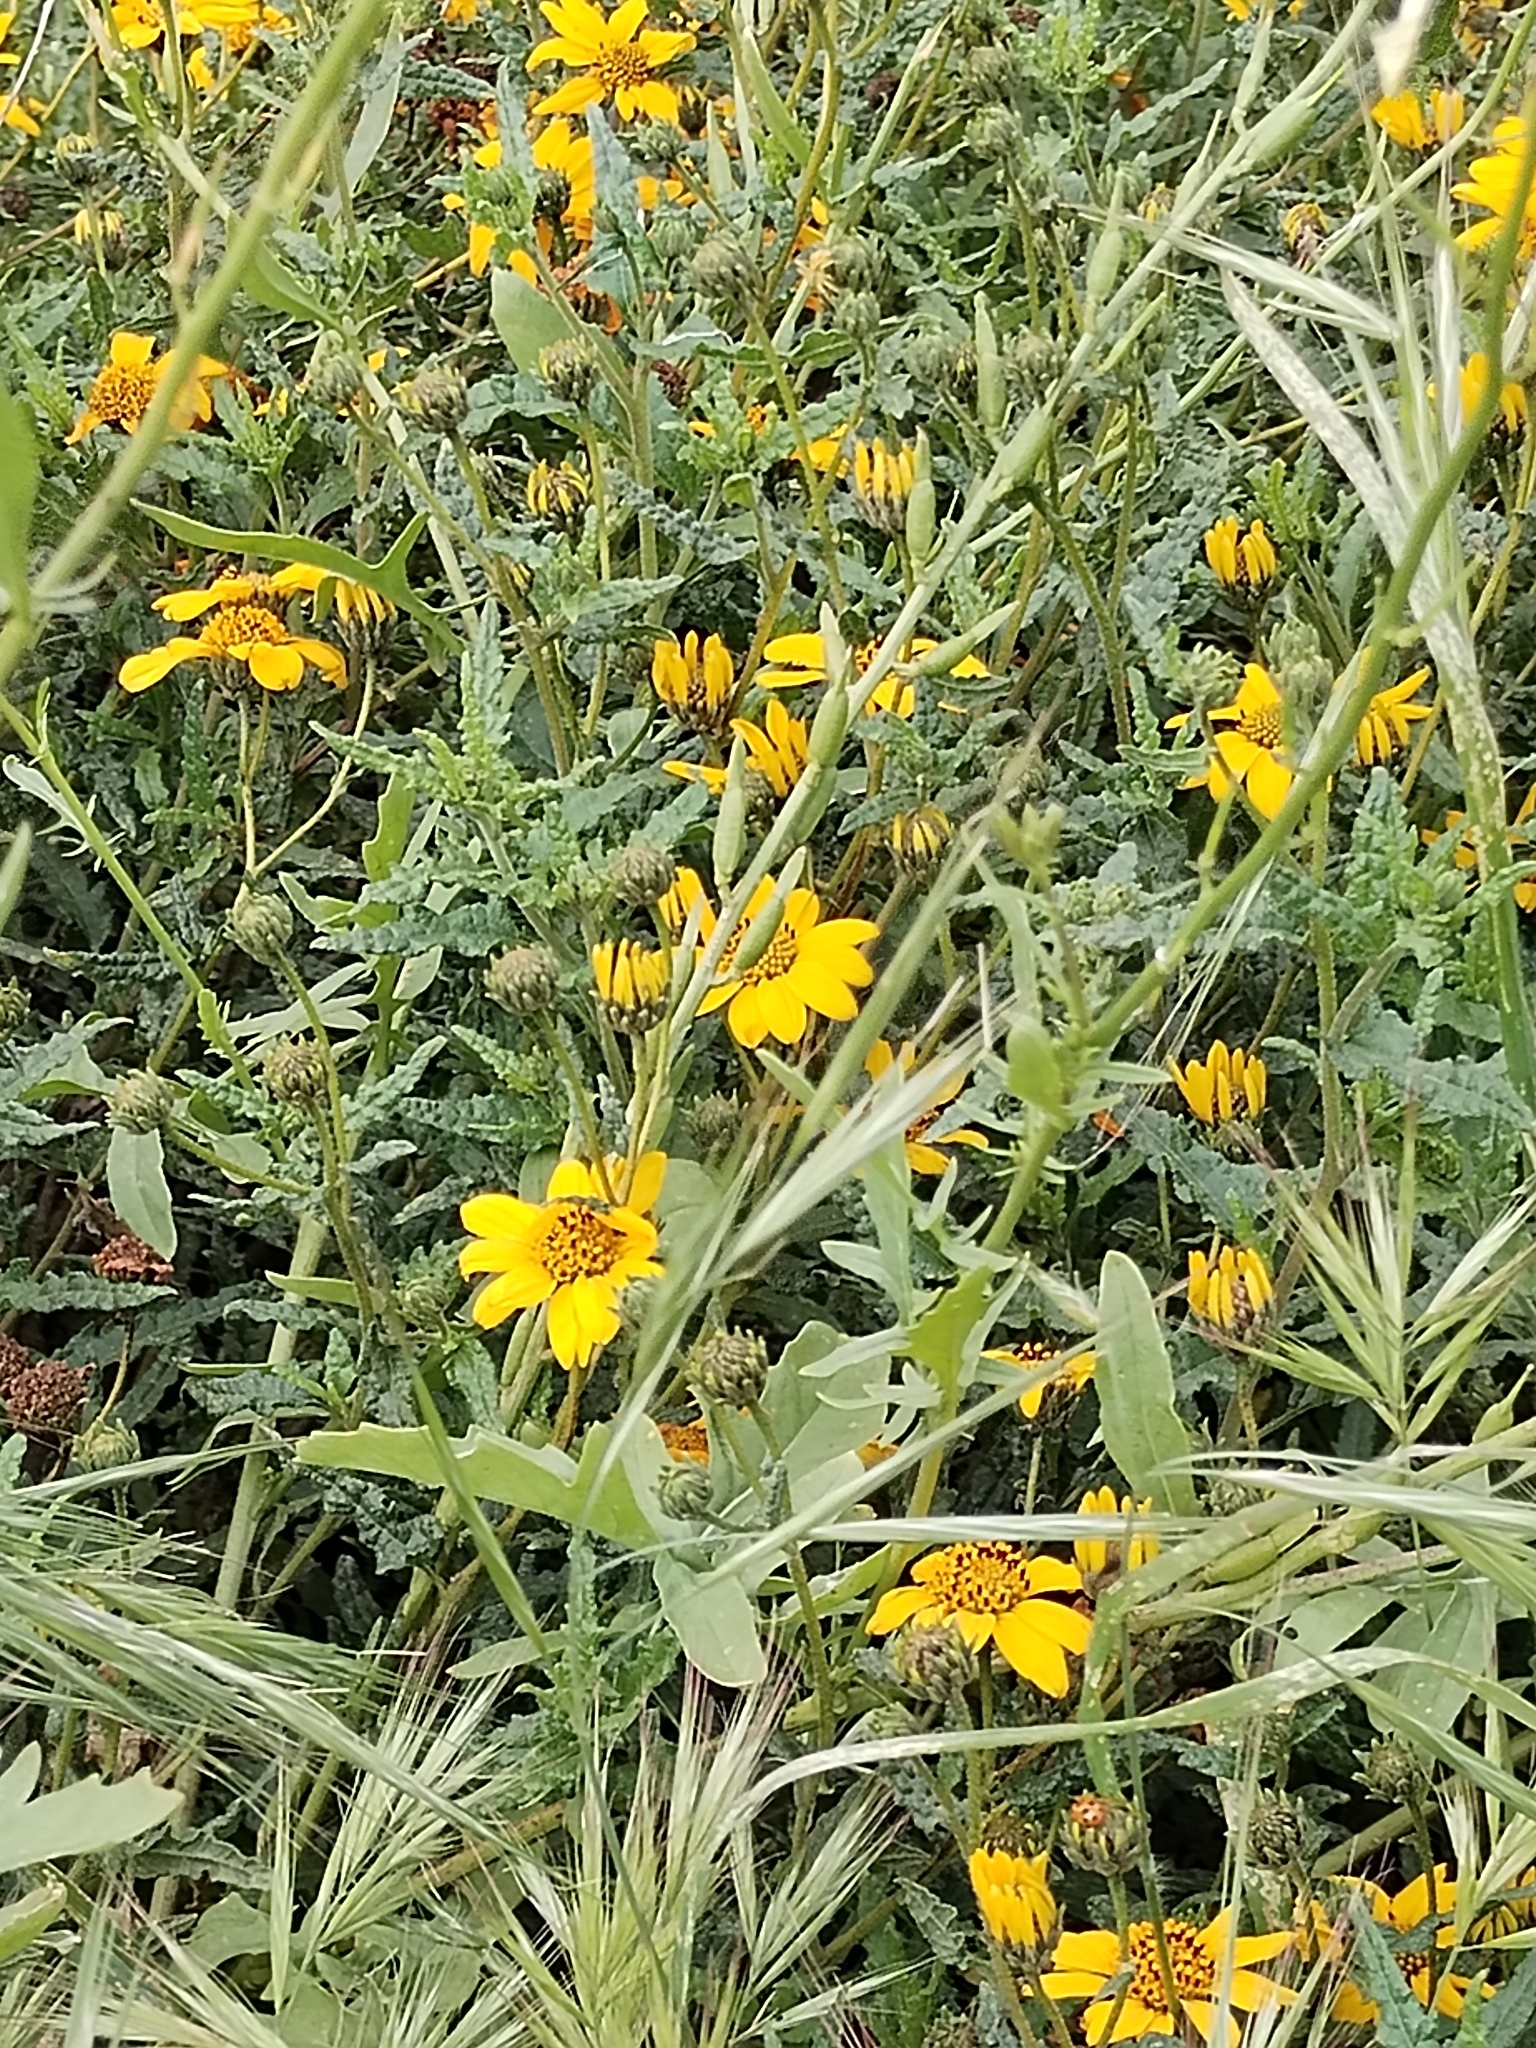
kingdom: Plantae
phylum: Tracheophyta
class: Magnoliopsida
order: Asterales
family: Asteraceae
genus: Bahiopsis
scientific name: Bahiopsis laciniata
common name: San diego county viguiera
